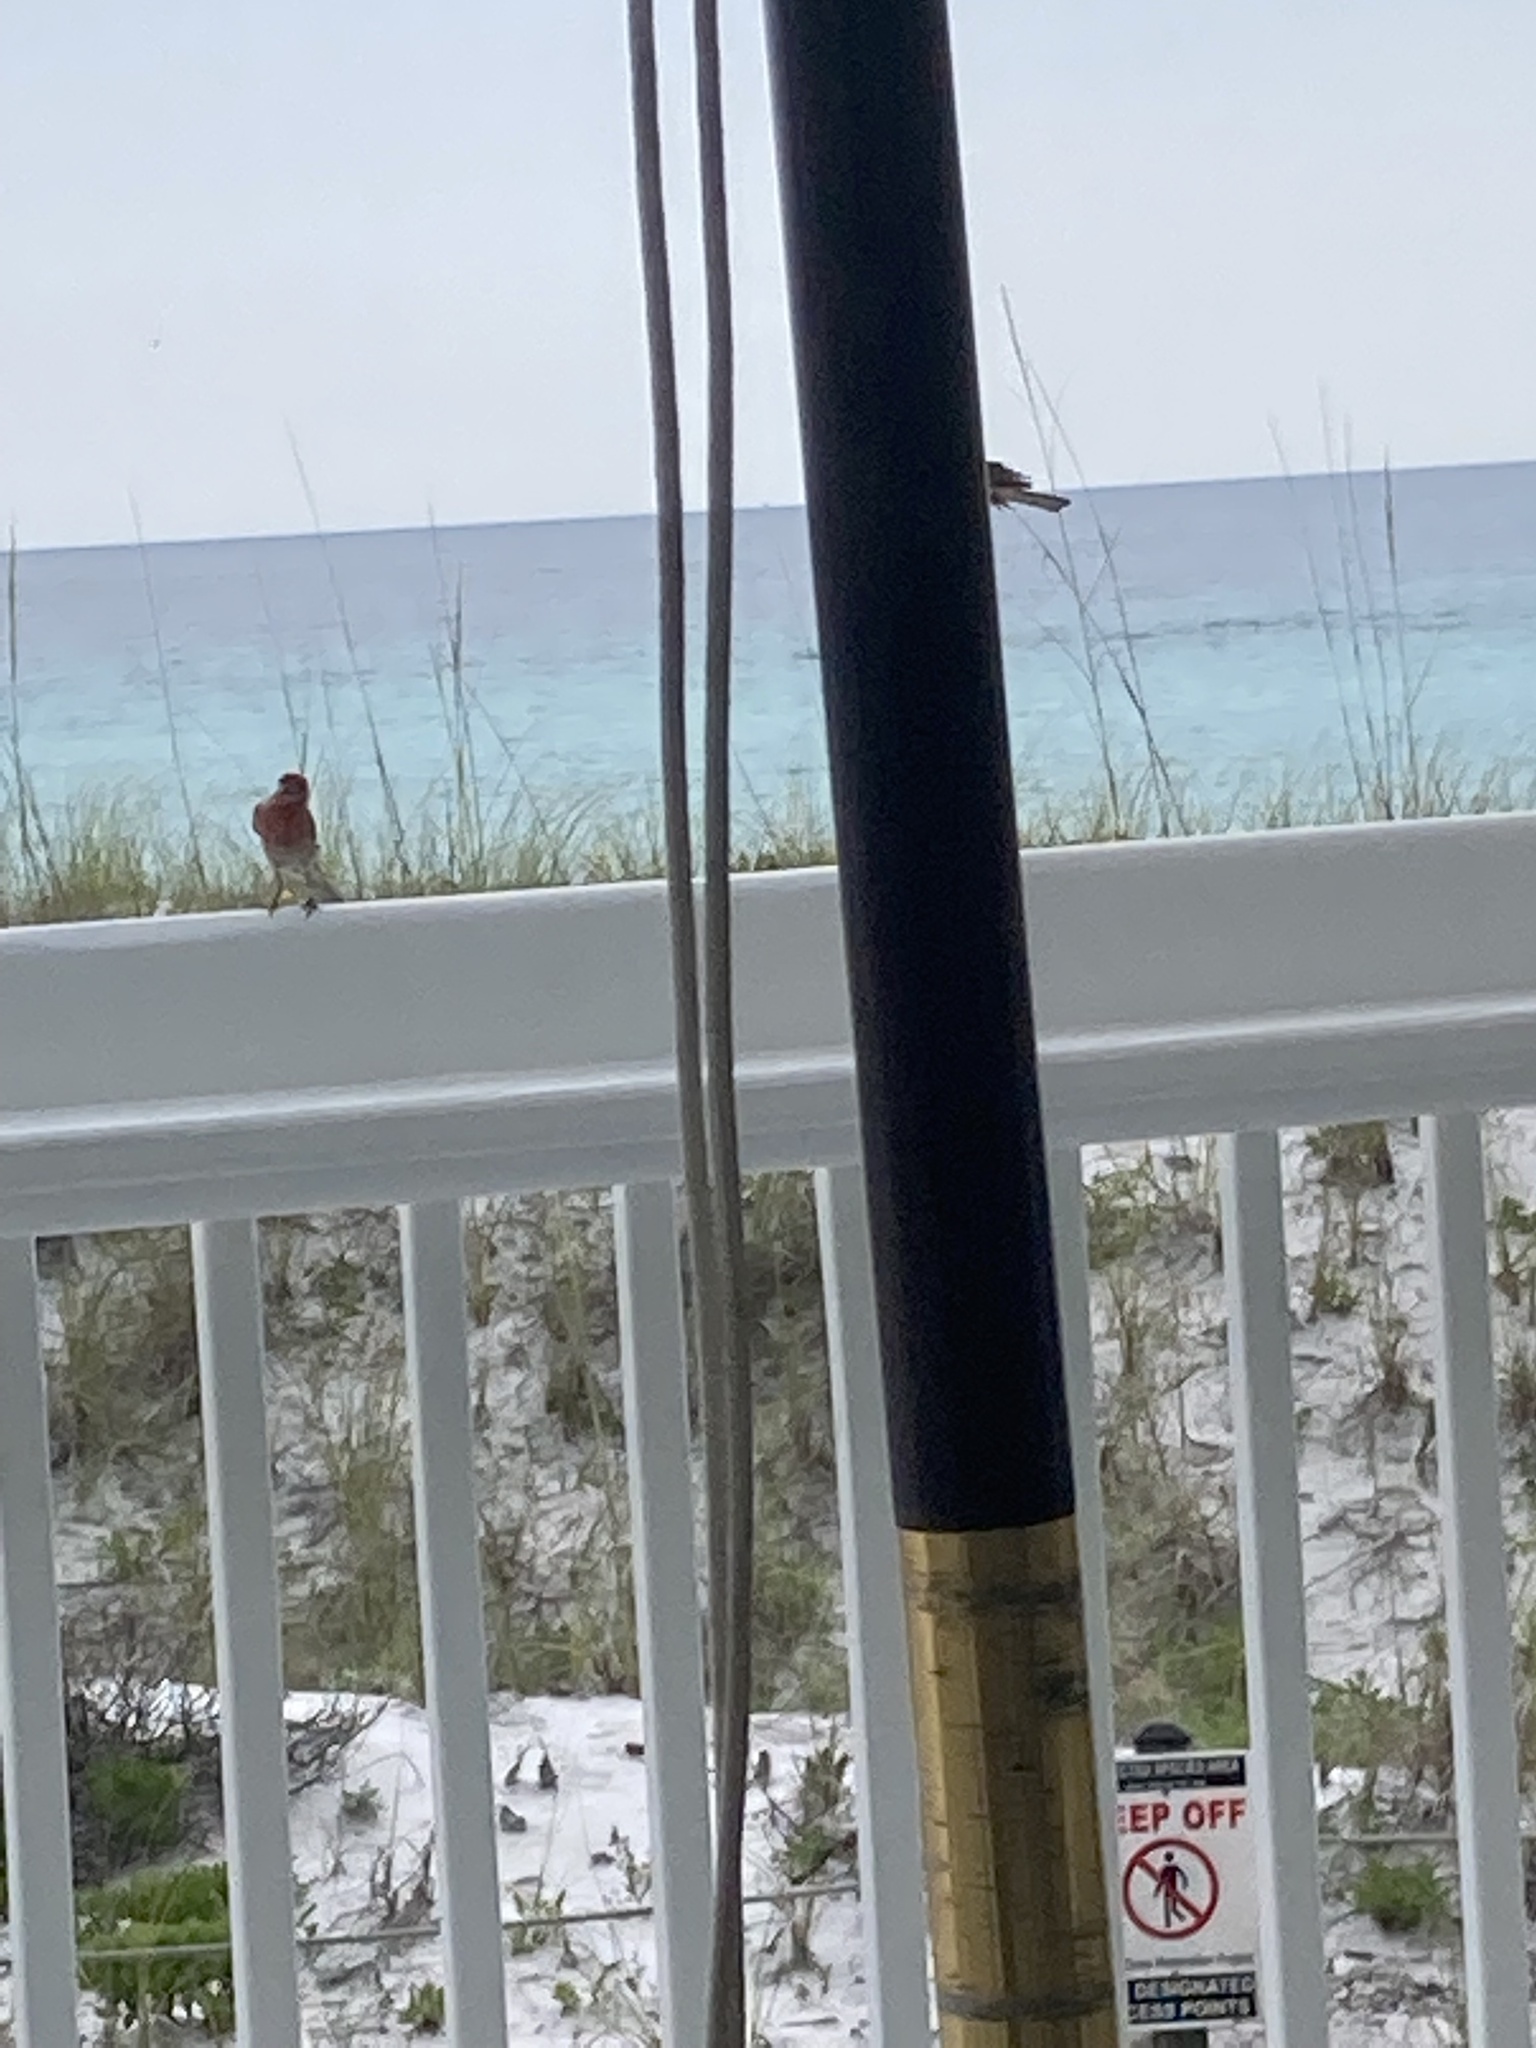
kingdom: Animalia
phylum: Chordata
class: Aves
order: Passeriformes
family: Fringillidae
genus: Haemorhous
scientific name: Haemorhous mexicanus
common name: House finch
